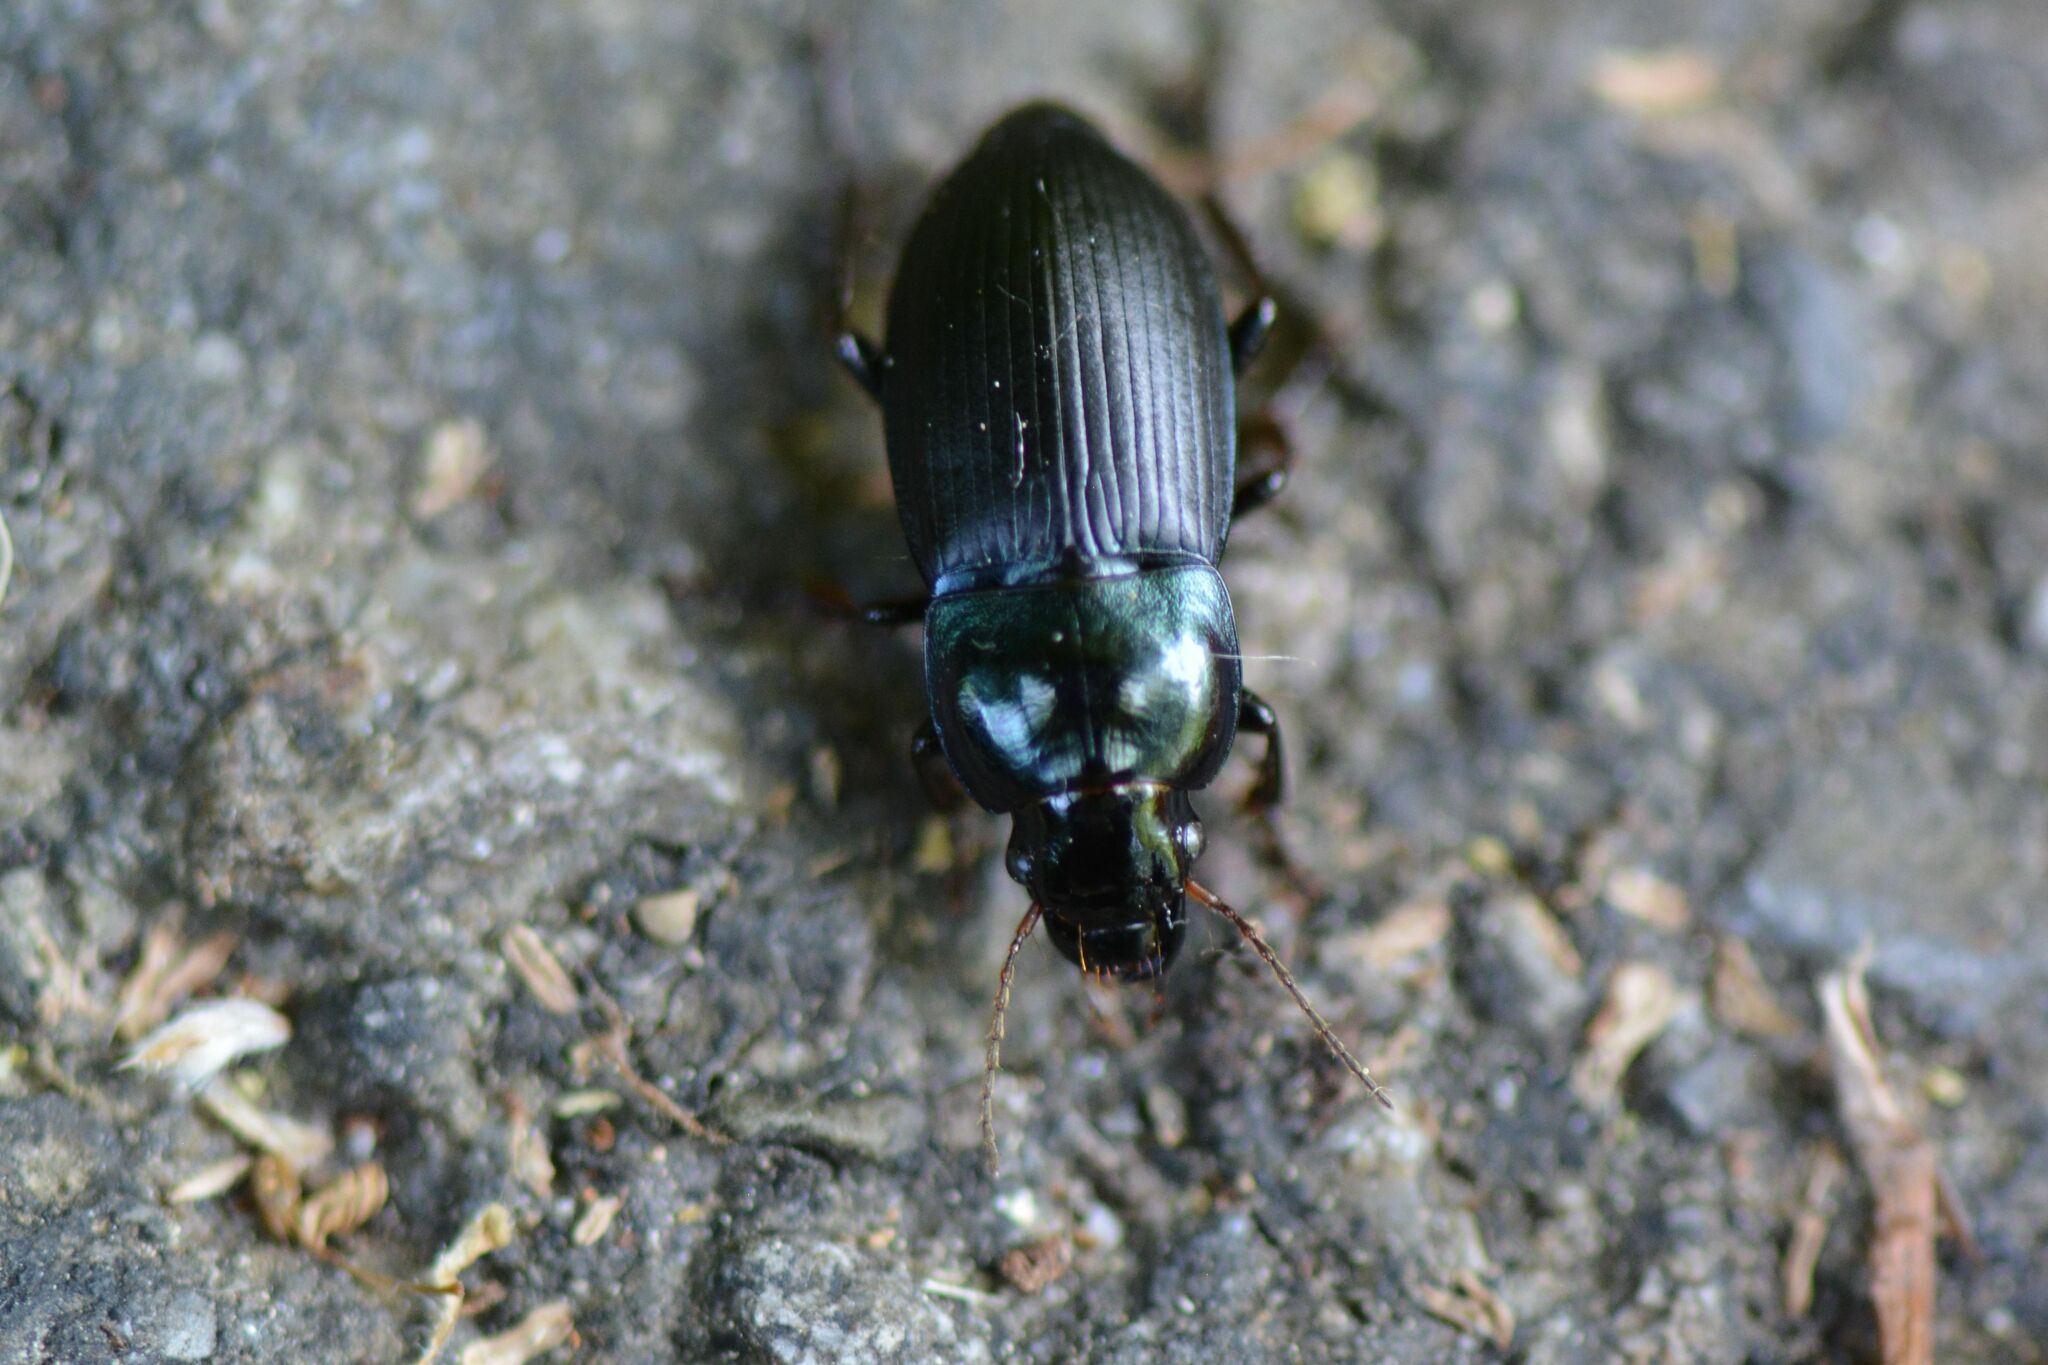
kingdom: Animalia
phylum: Arthropoda
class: Insecta
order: Coleoptera
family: Carabidae
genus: Harpalus
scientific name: Harpalus dimidiatus
